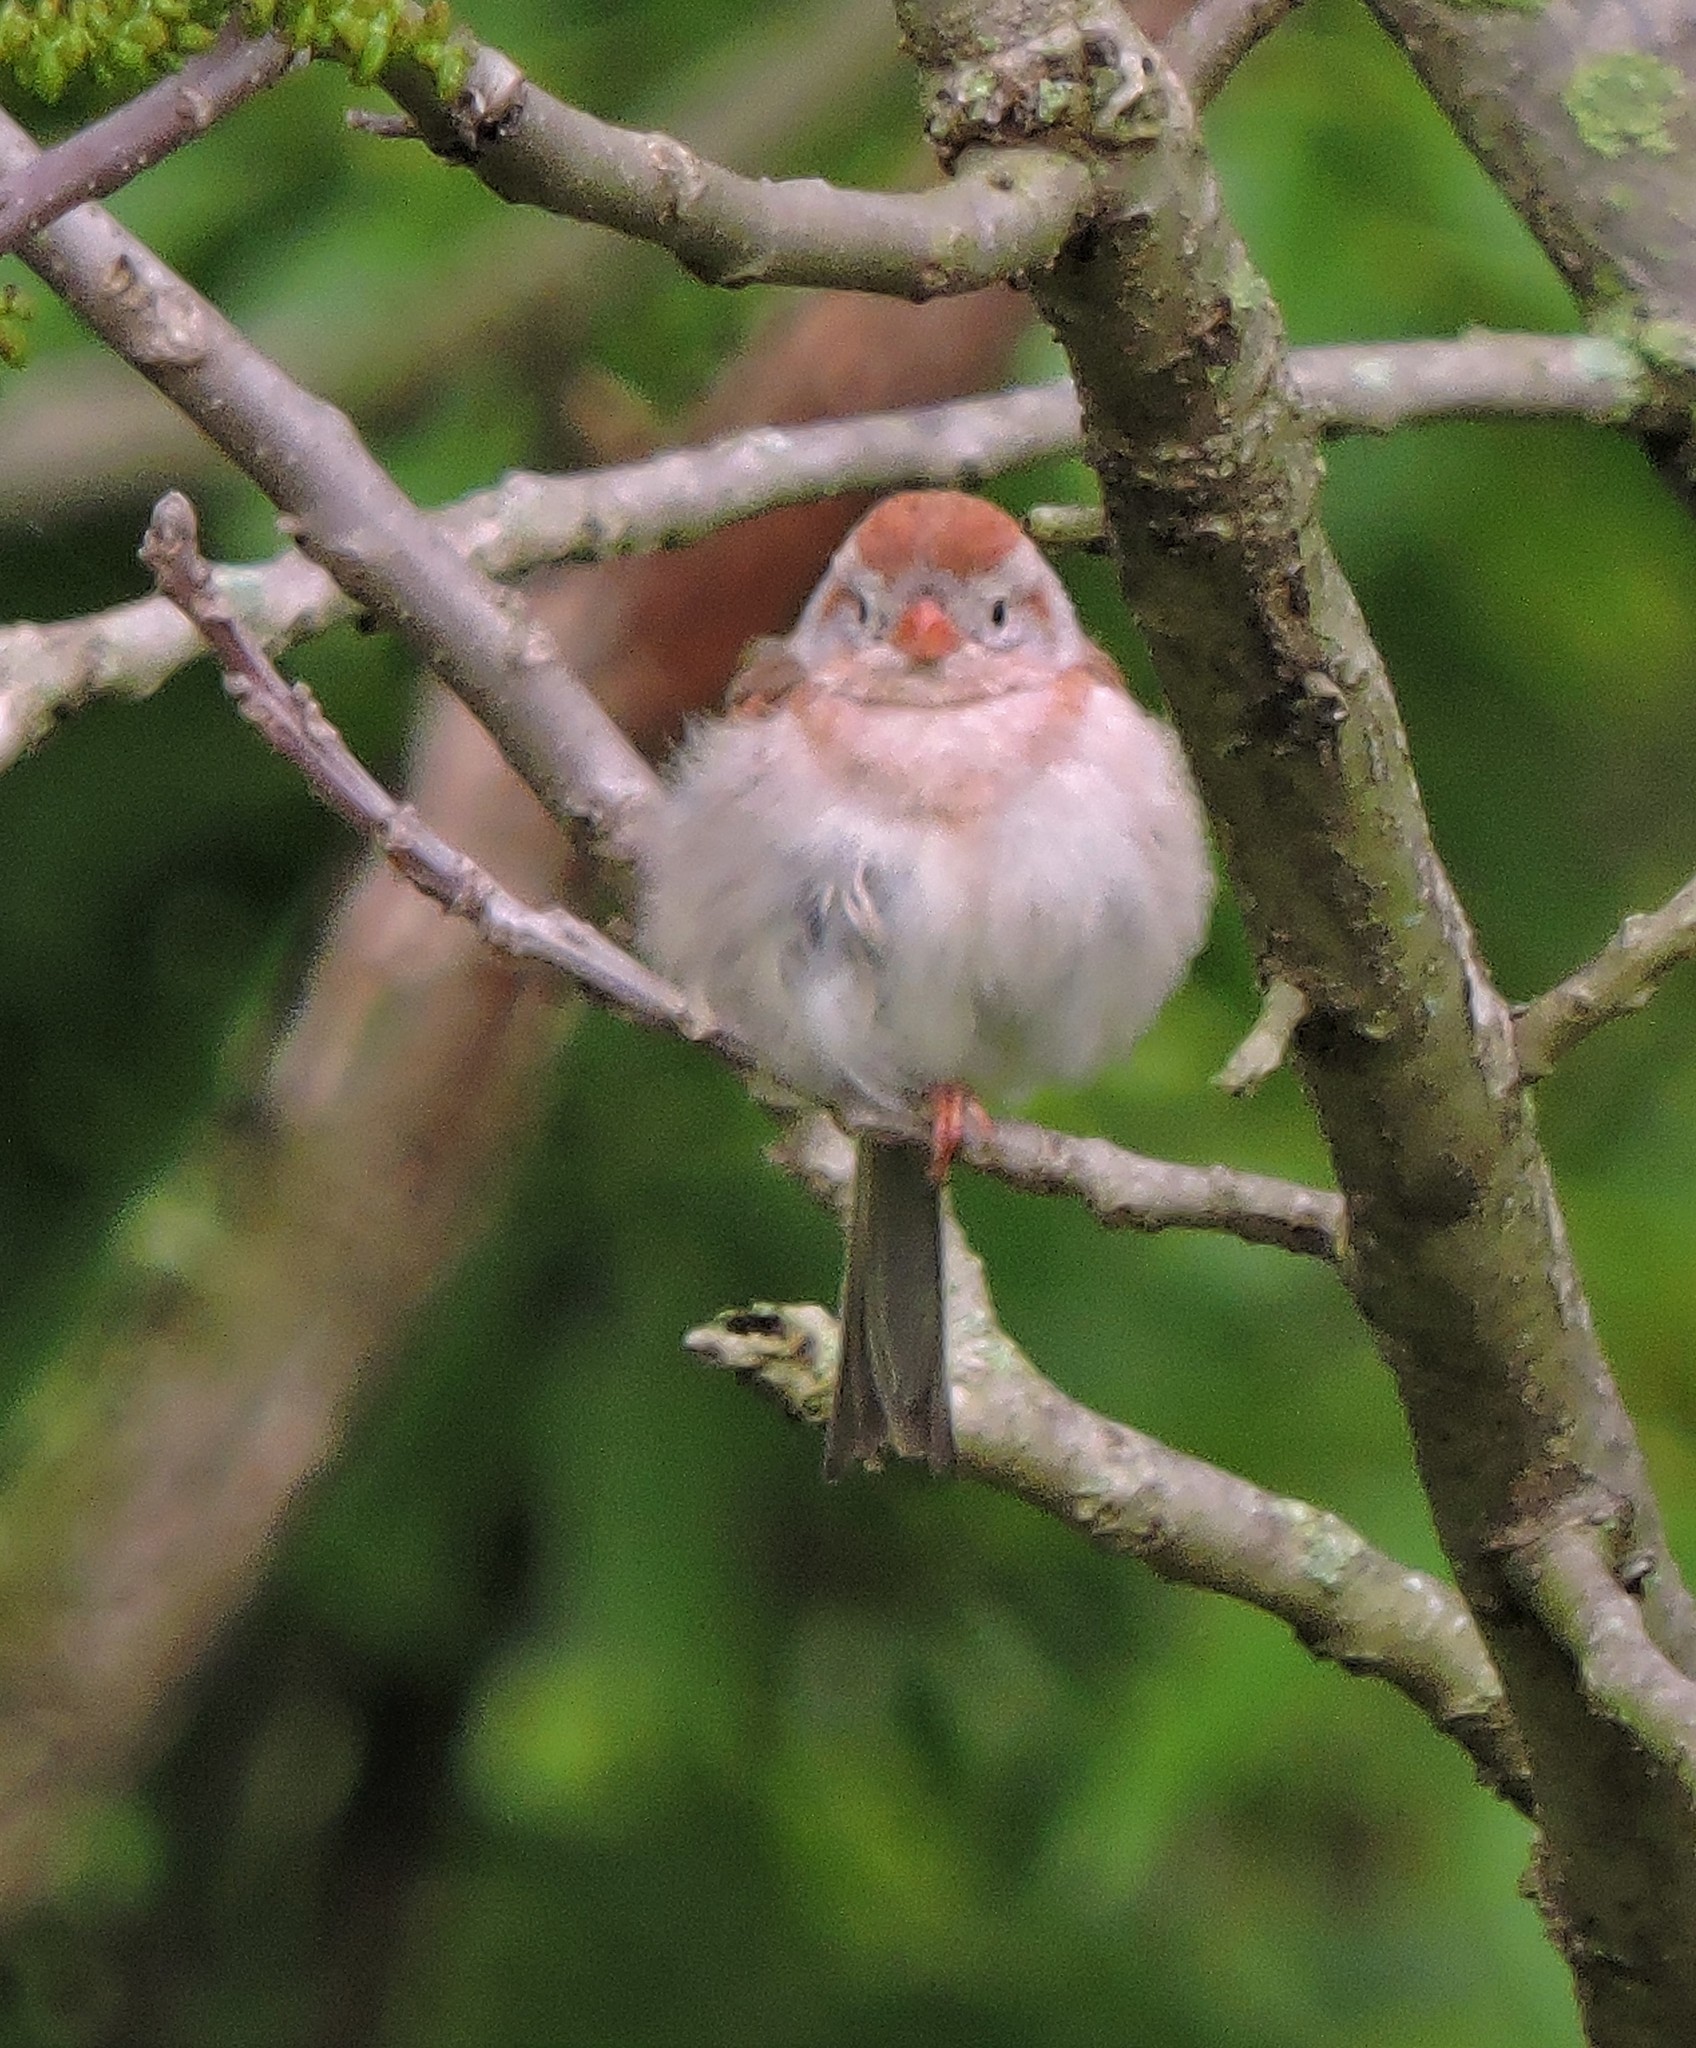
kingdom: Animalia
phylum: Chordata
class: Aves
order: Passeriformes
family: Passerellidae
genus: Spizella
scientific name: Spizella pusilla
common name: Field sparrow
